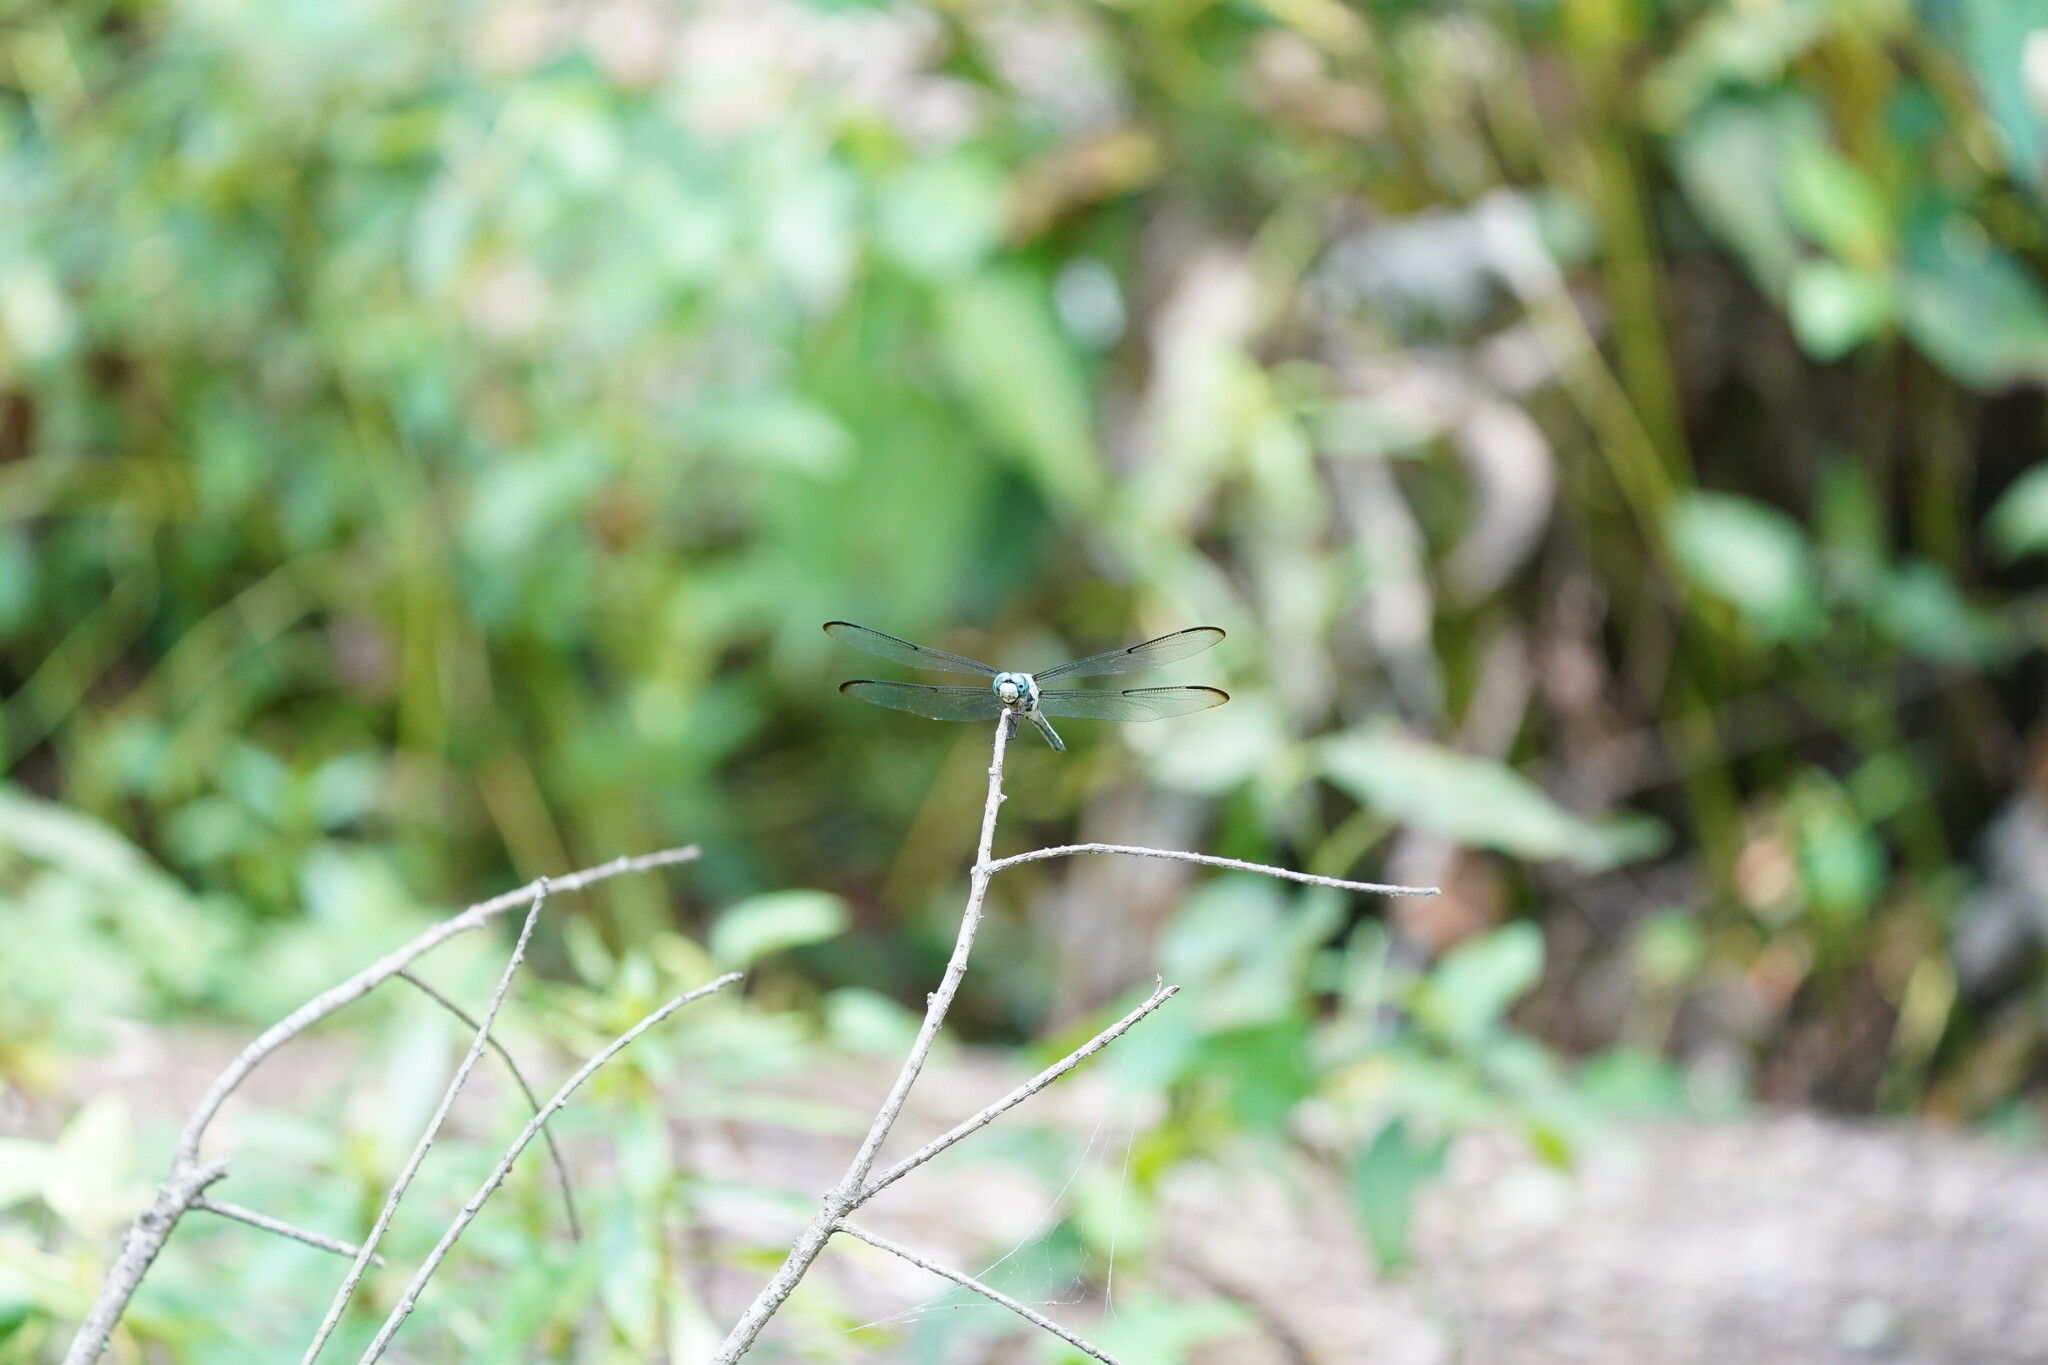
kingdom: Animalia
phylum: Arthropoda
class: Insecta
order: Odonata
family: Libellulidae
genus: Libellula
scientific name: Libellula vibrans
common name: Great blue skimmer
